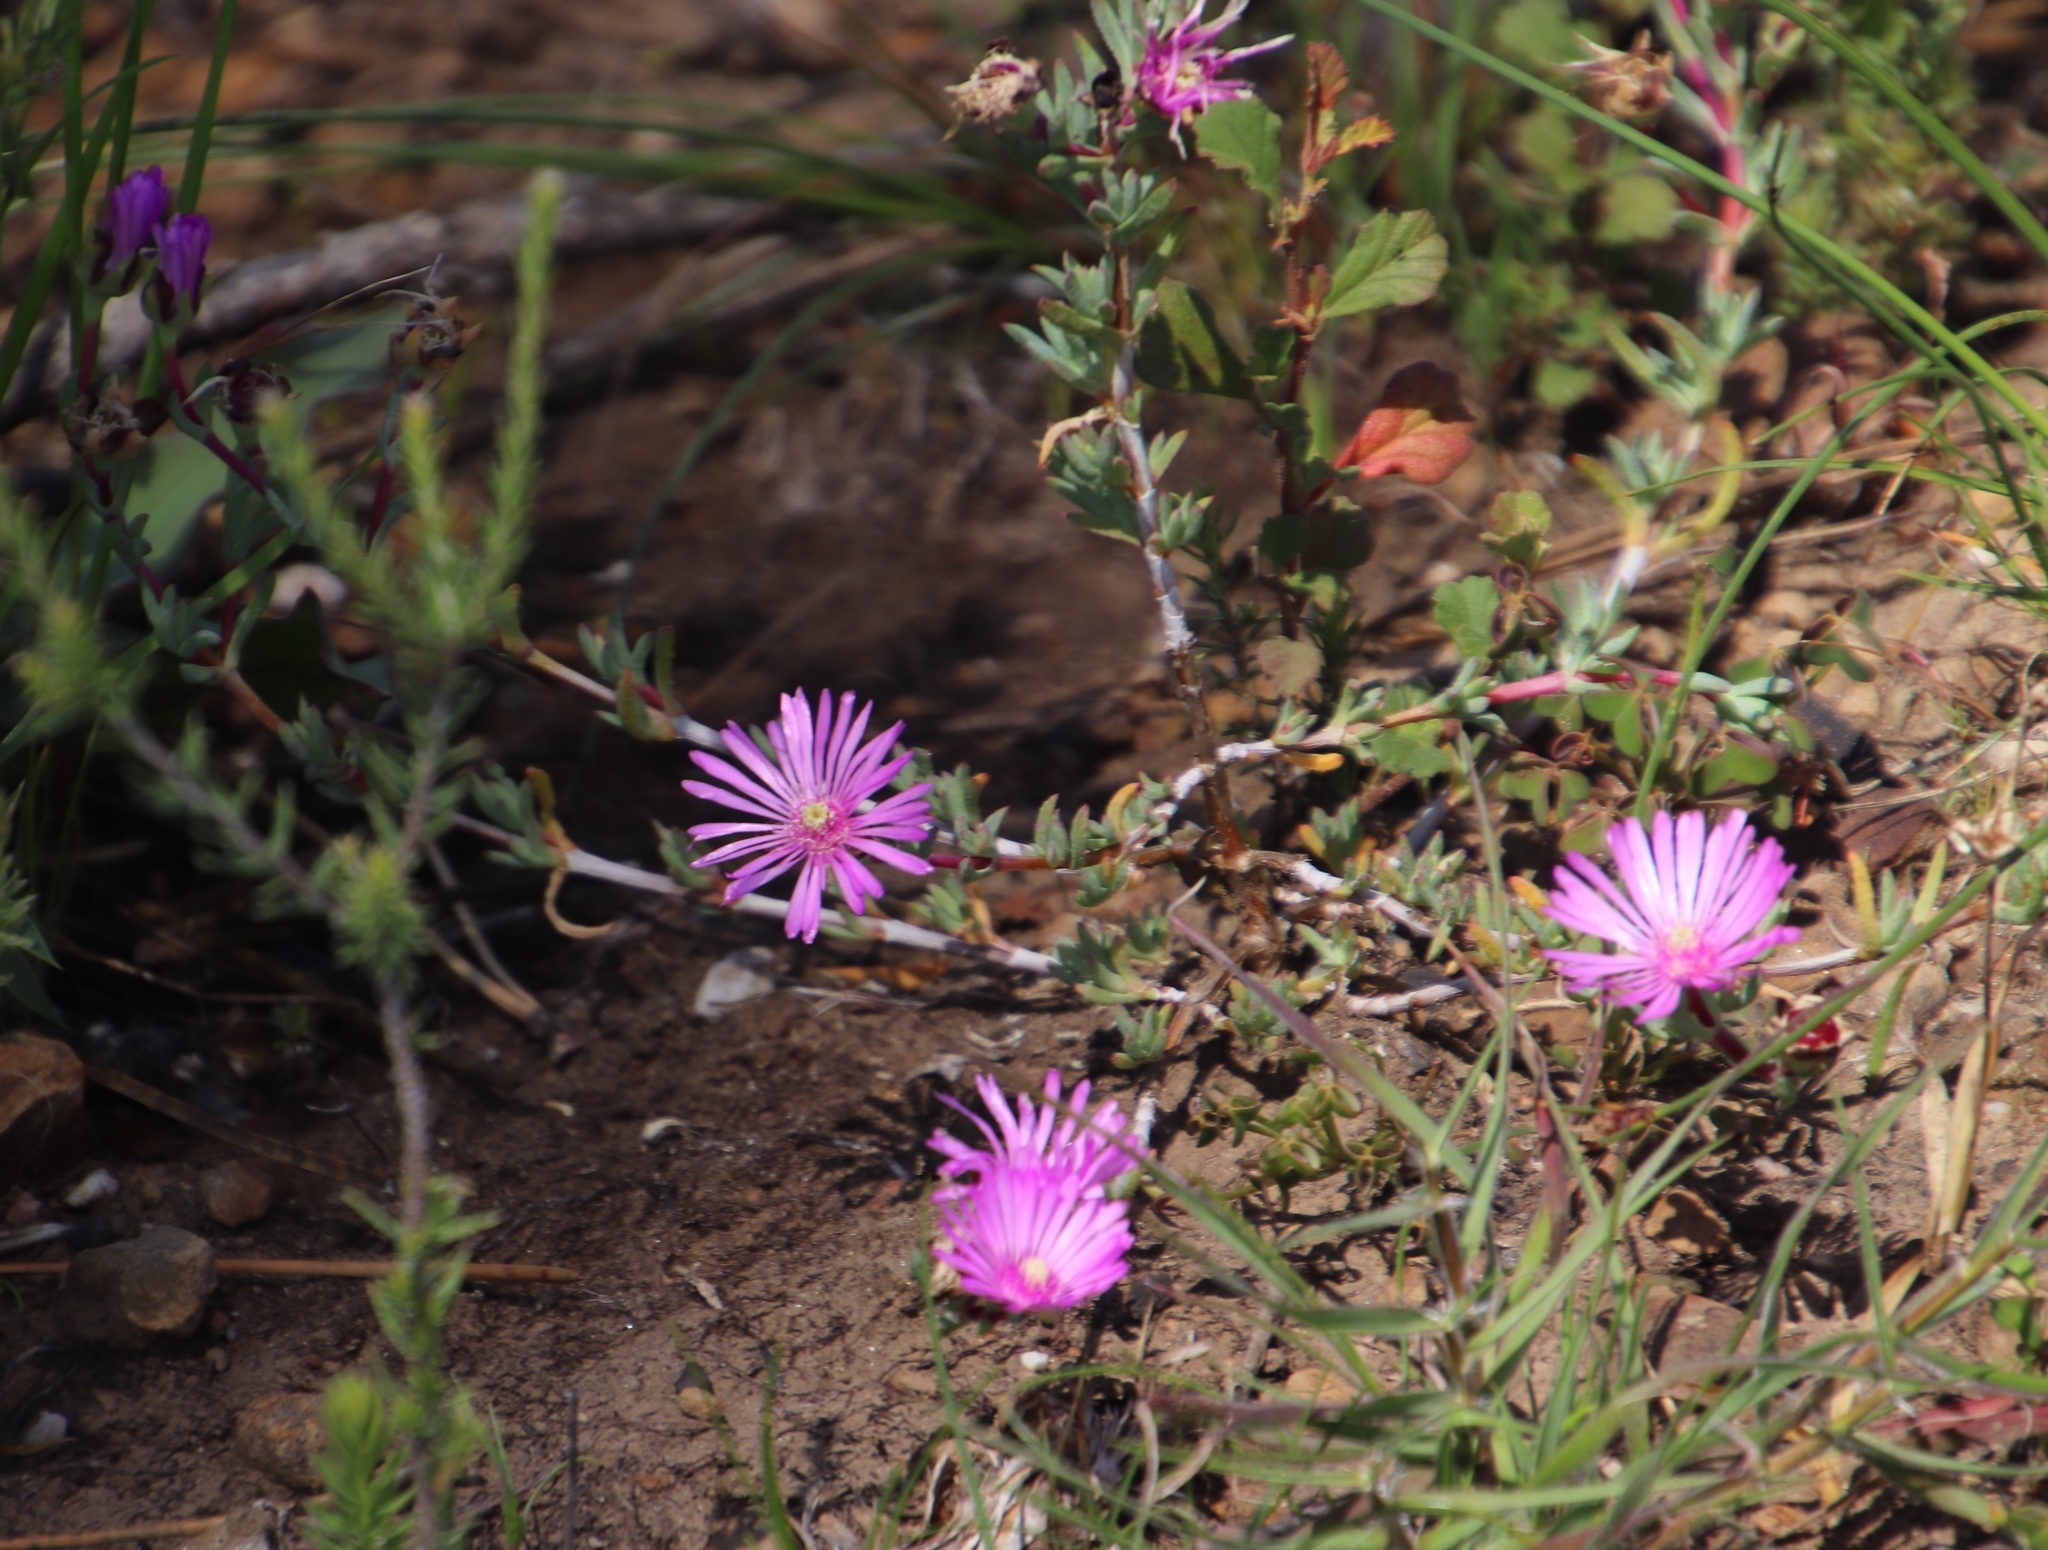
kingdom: Plantae
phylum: Tracheophyta
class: Magnoliopsida
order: Caryophyllales
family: Aizoaceae
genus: Lampranthus
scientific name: Lampranthus elegans
